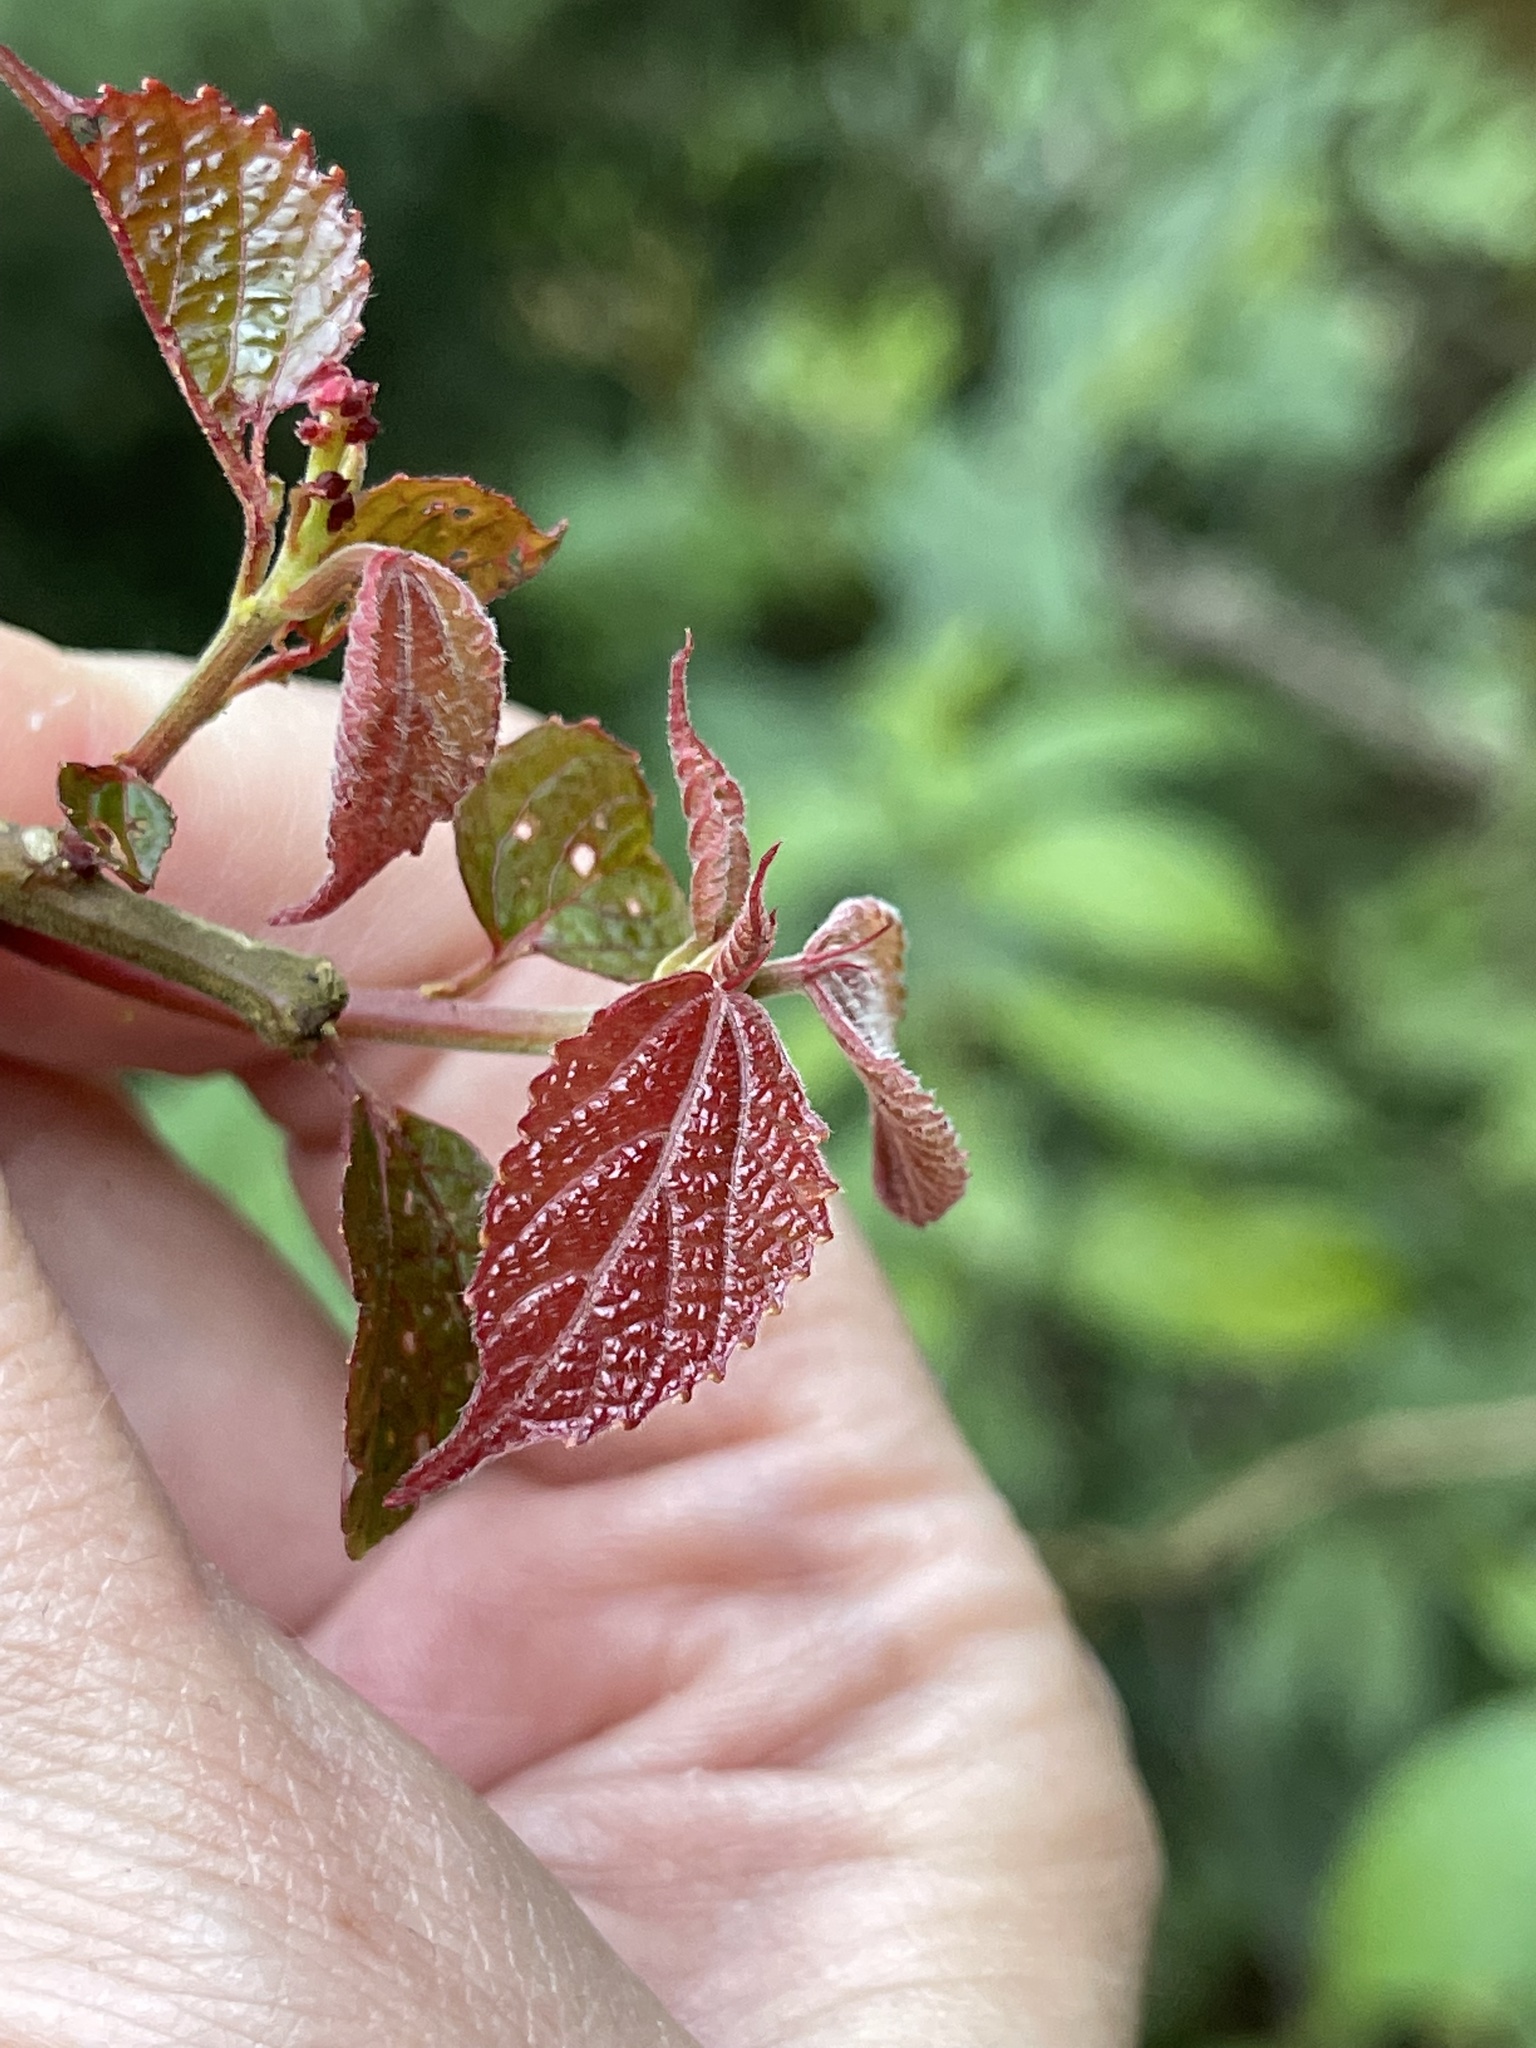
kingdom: Plantae
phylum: Tracheophyta
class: Magnoliopsida
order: Malpighiales
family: Euphorbiaceae
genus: Alchornea
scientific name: Alchornea trewioides
